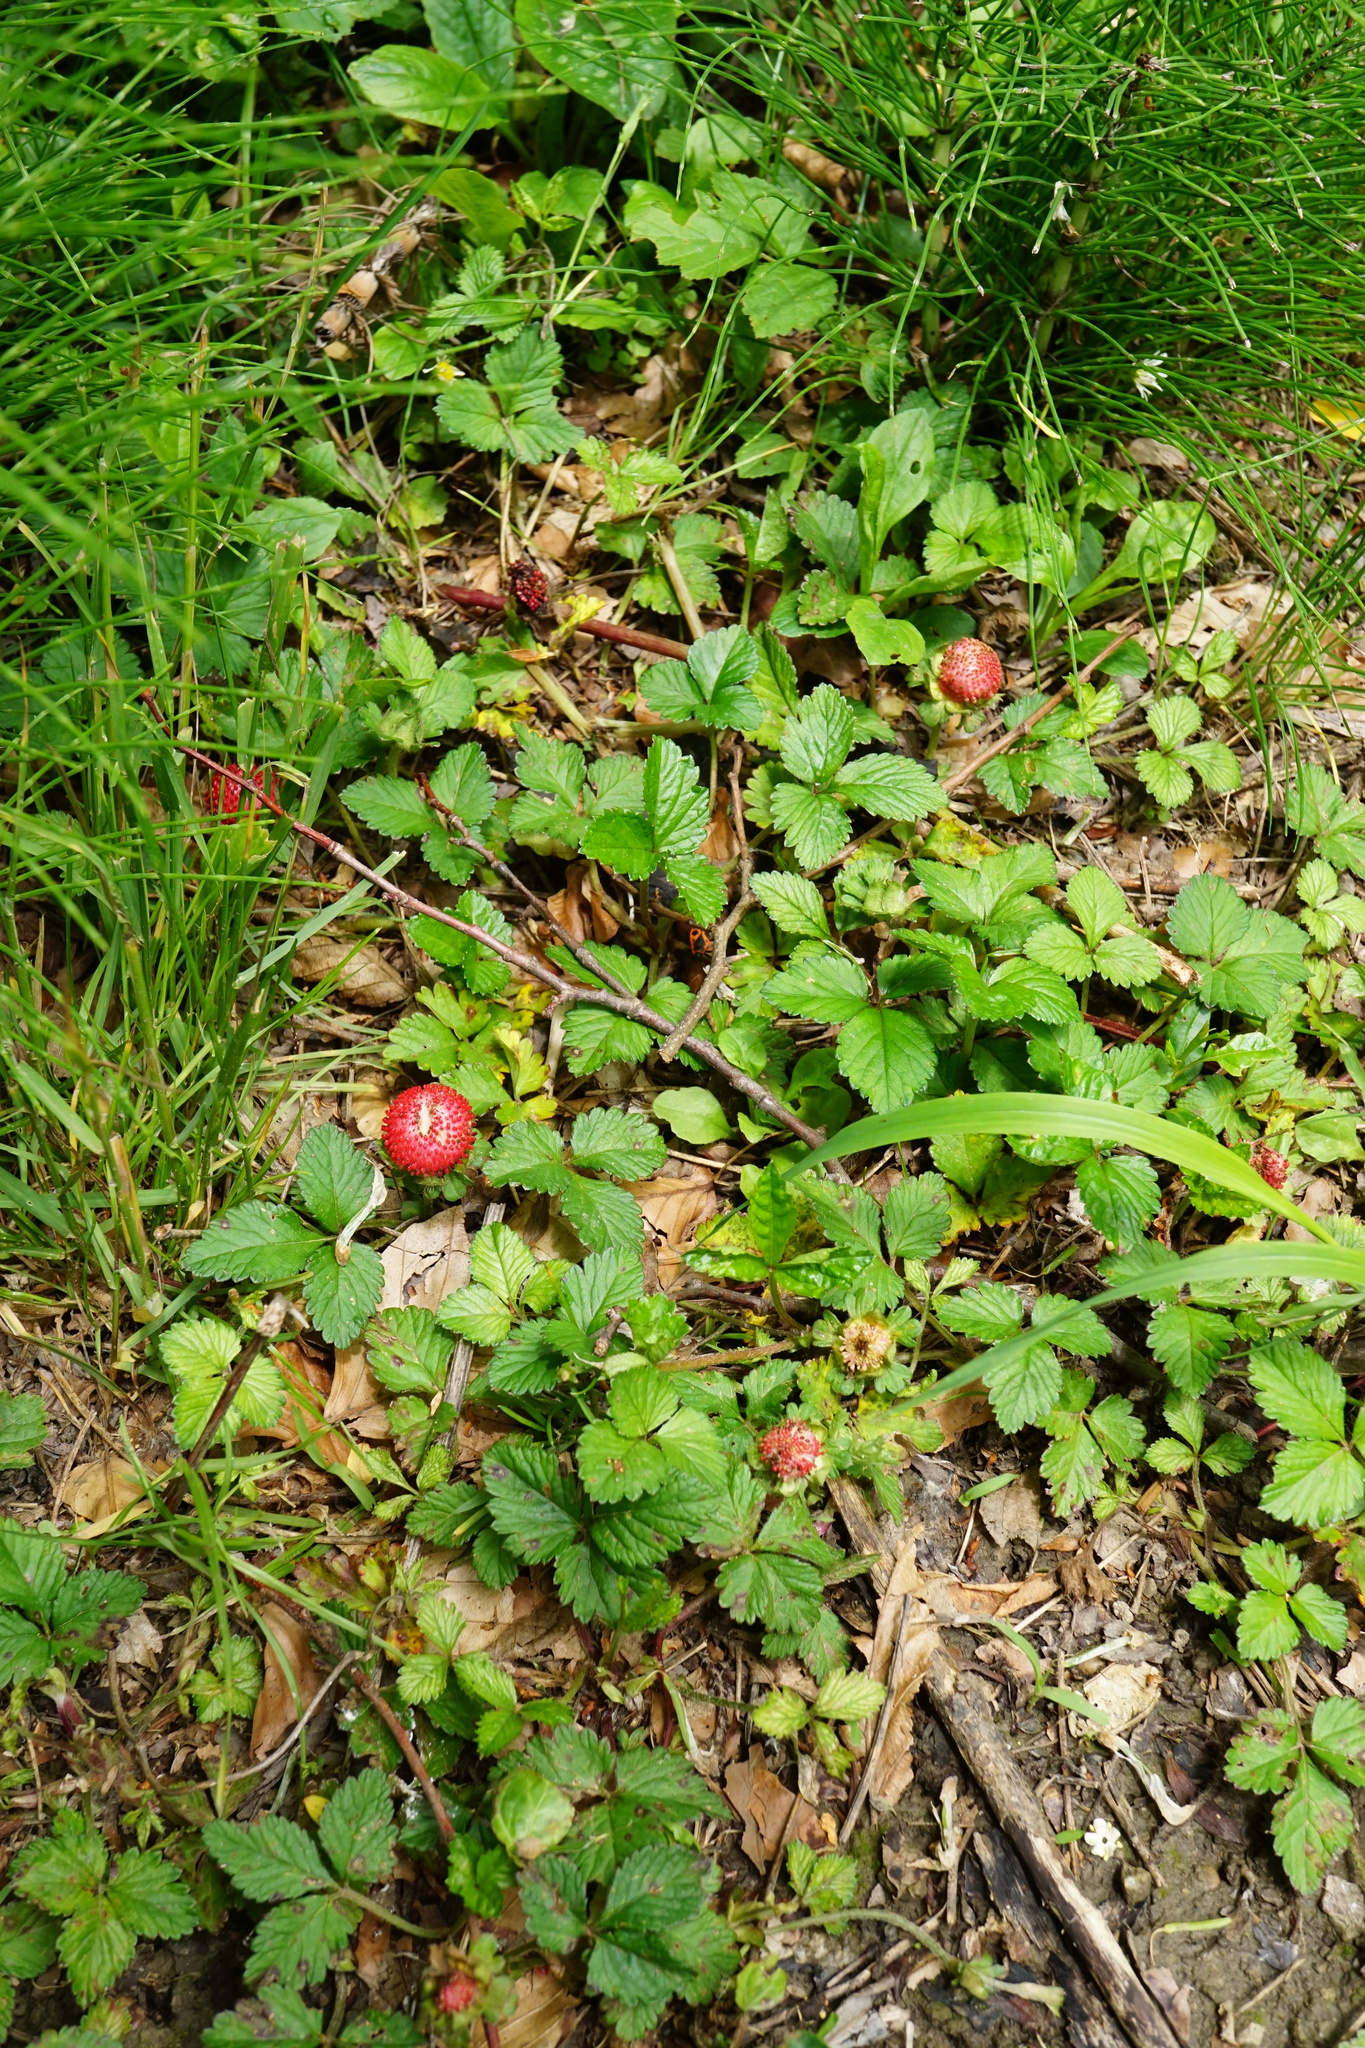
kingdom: Plantae
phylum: Tracheophyta
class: Magnoliopsida
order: Rosales
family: Rosaceae
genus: Potentilla
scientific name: Potentilla indica
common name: Yellow-flowered strawberry
